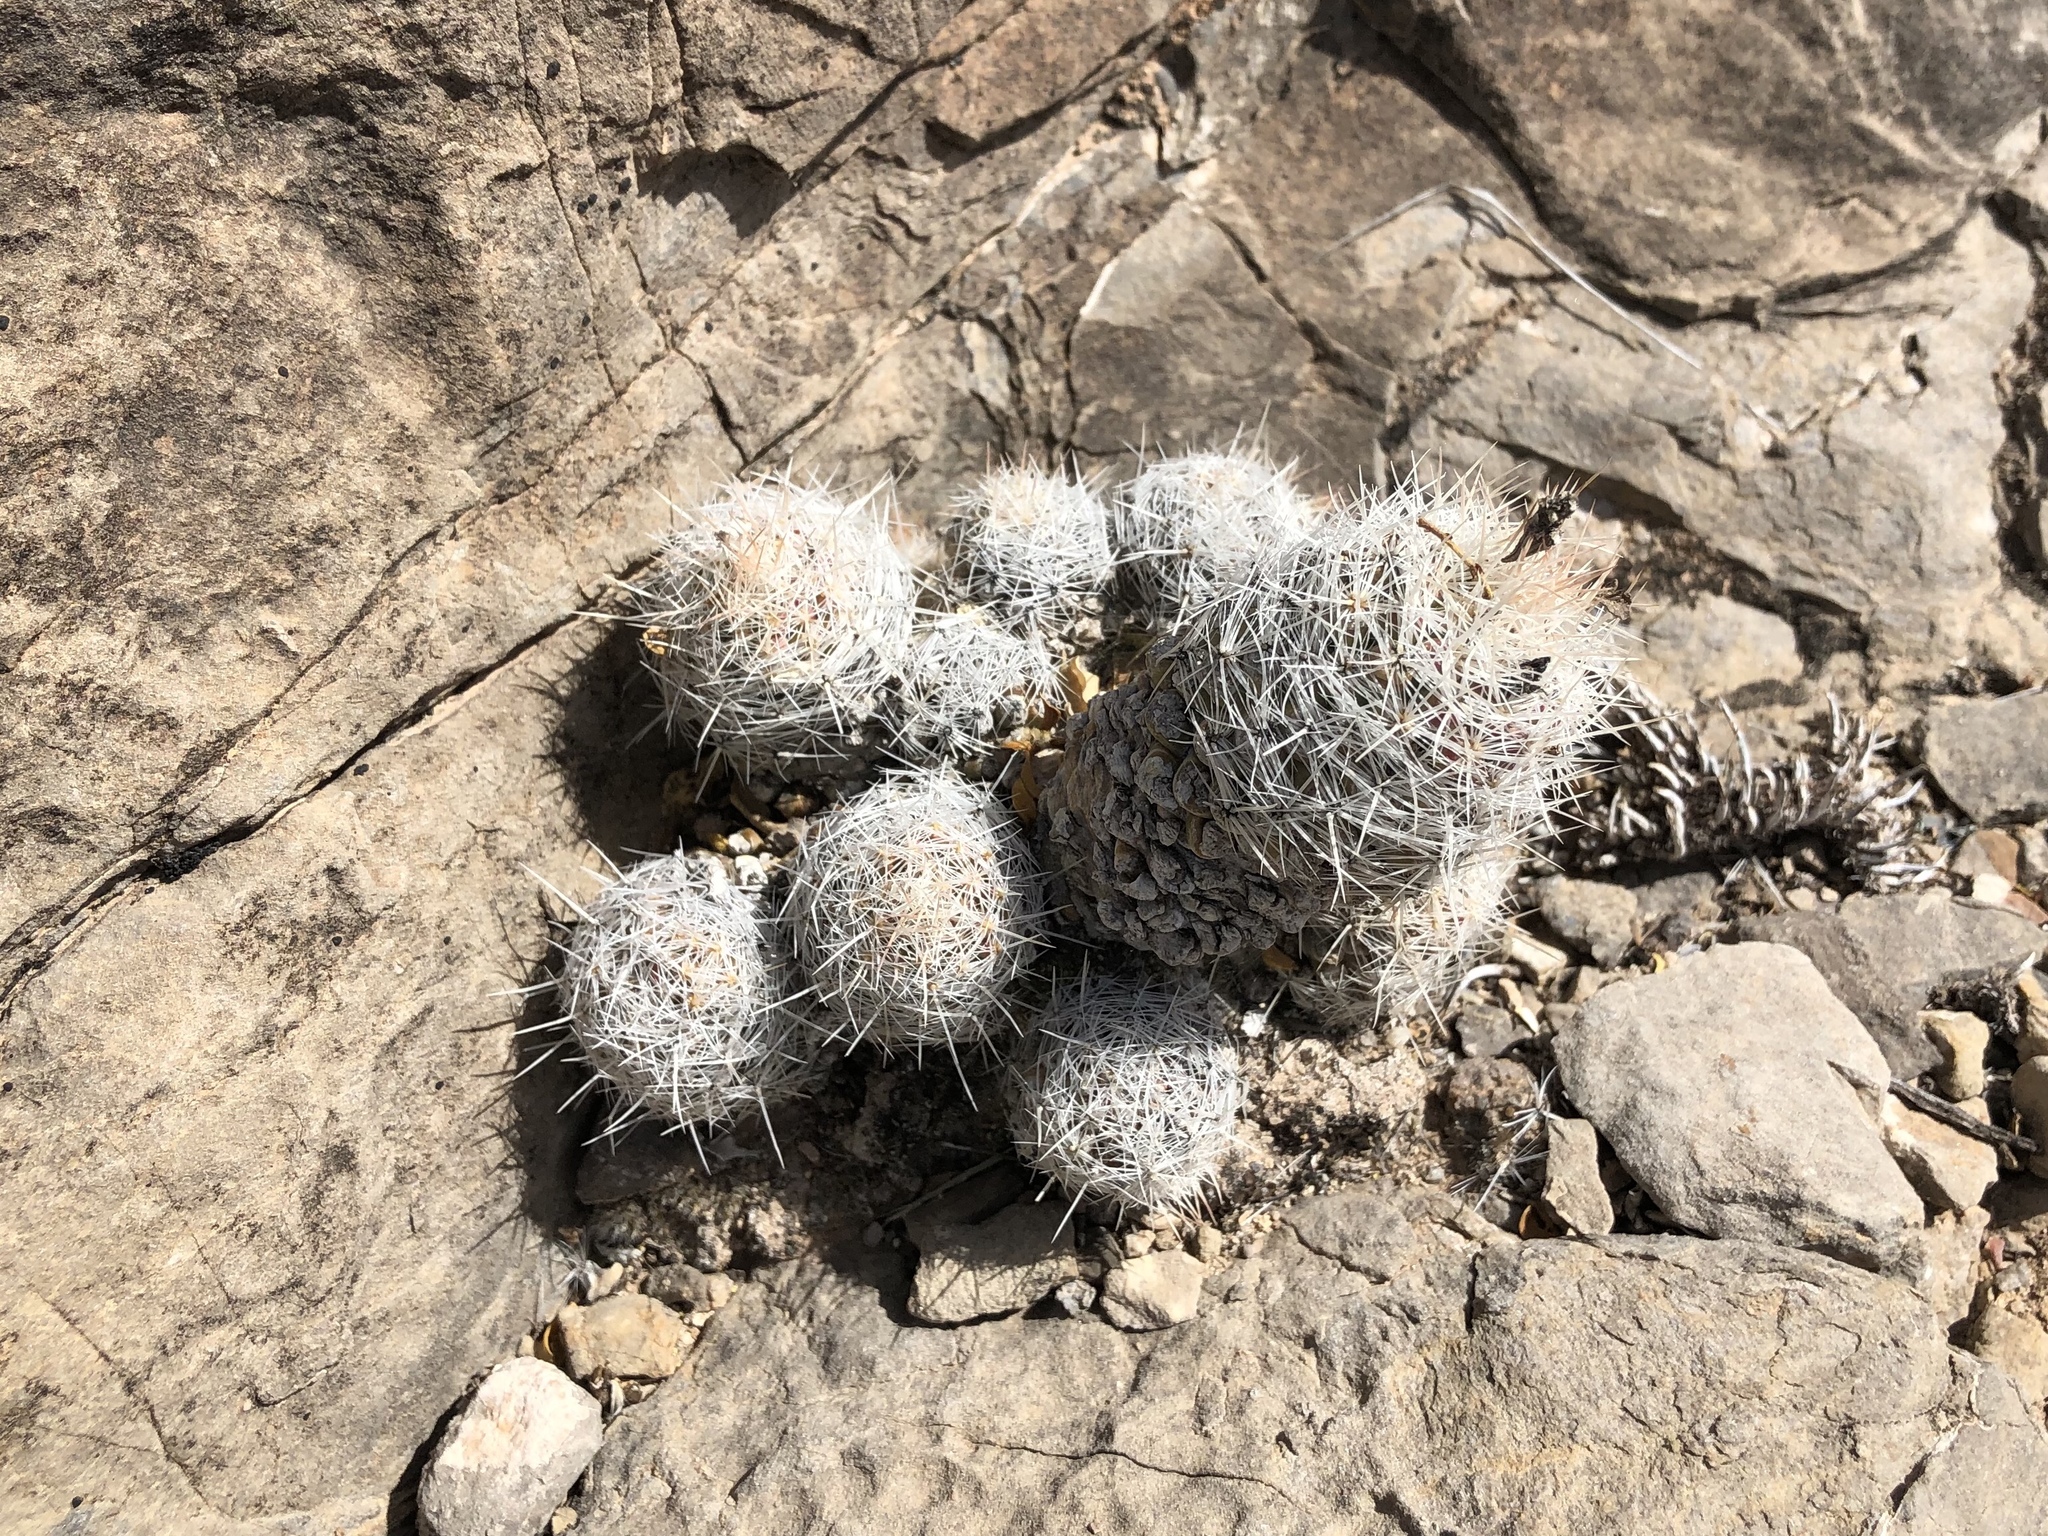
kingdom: Plantae
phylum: Tracheophyta
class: Magnoliopsida
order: Caryophyllales
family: Cactaceae
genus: Pelecyphora
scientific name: Pelecyphora tuberculosa
